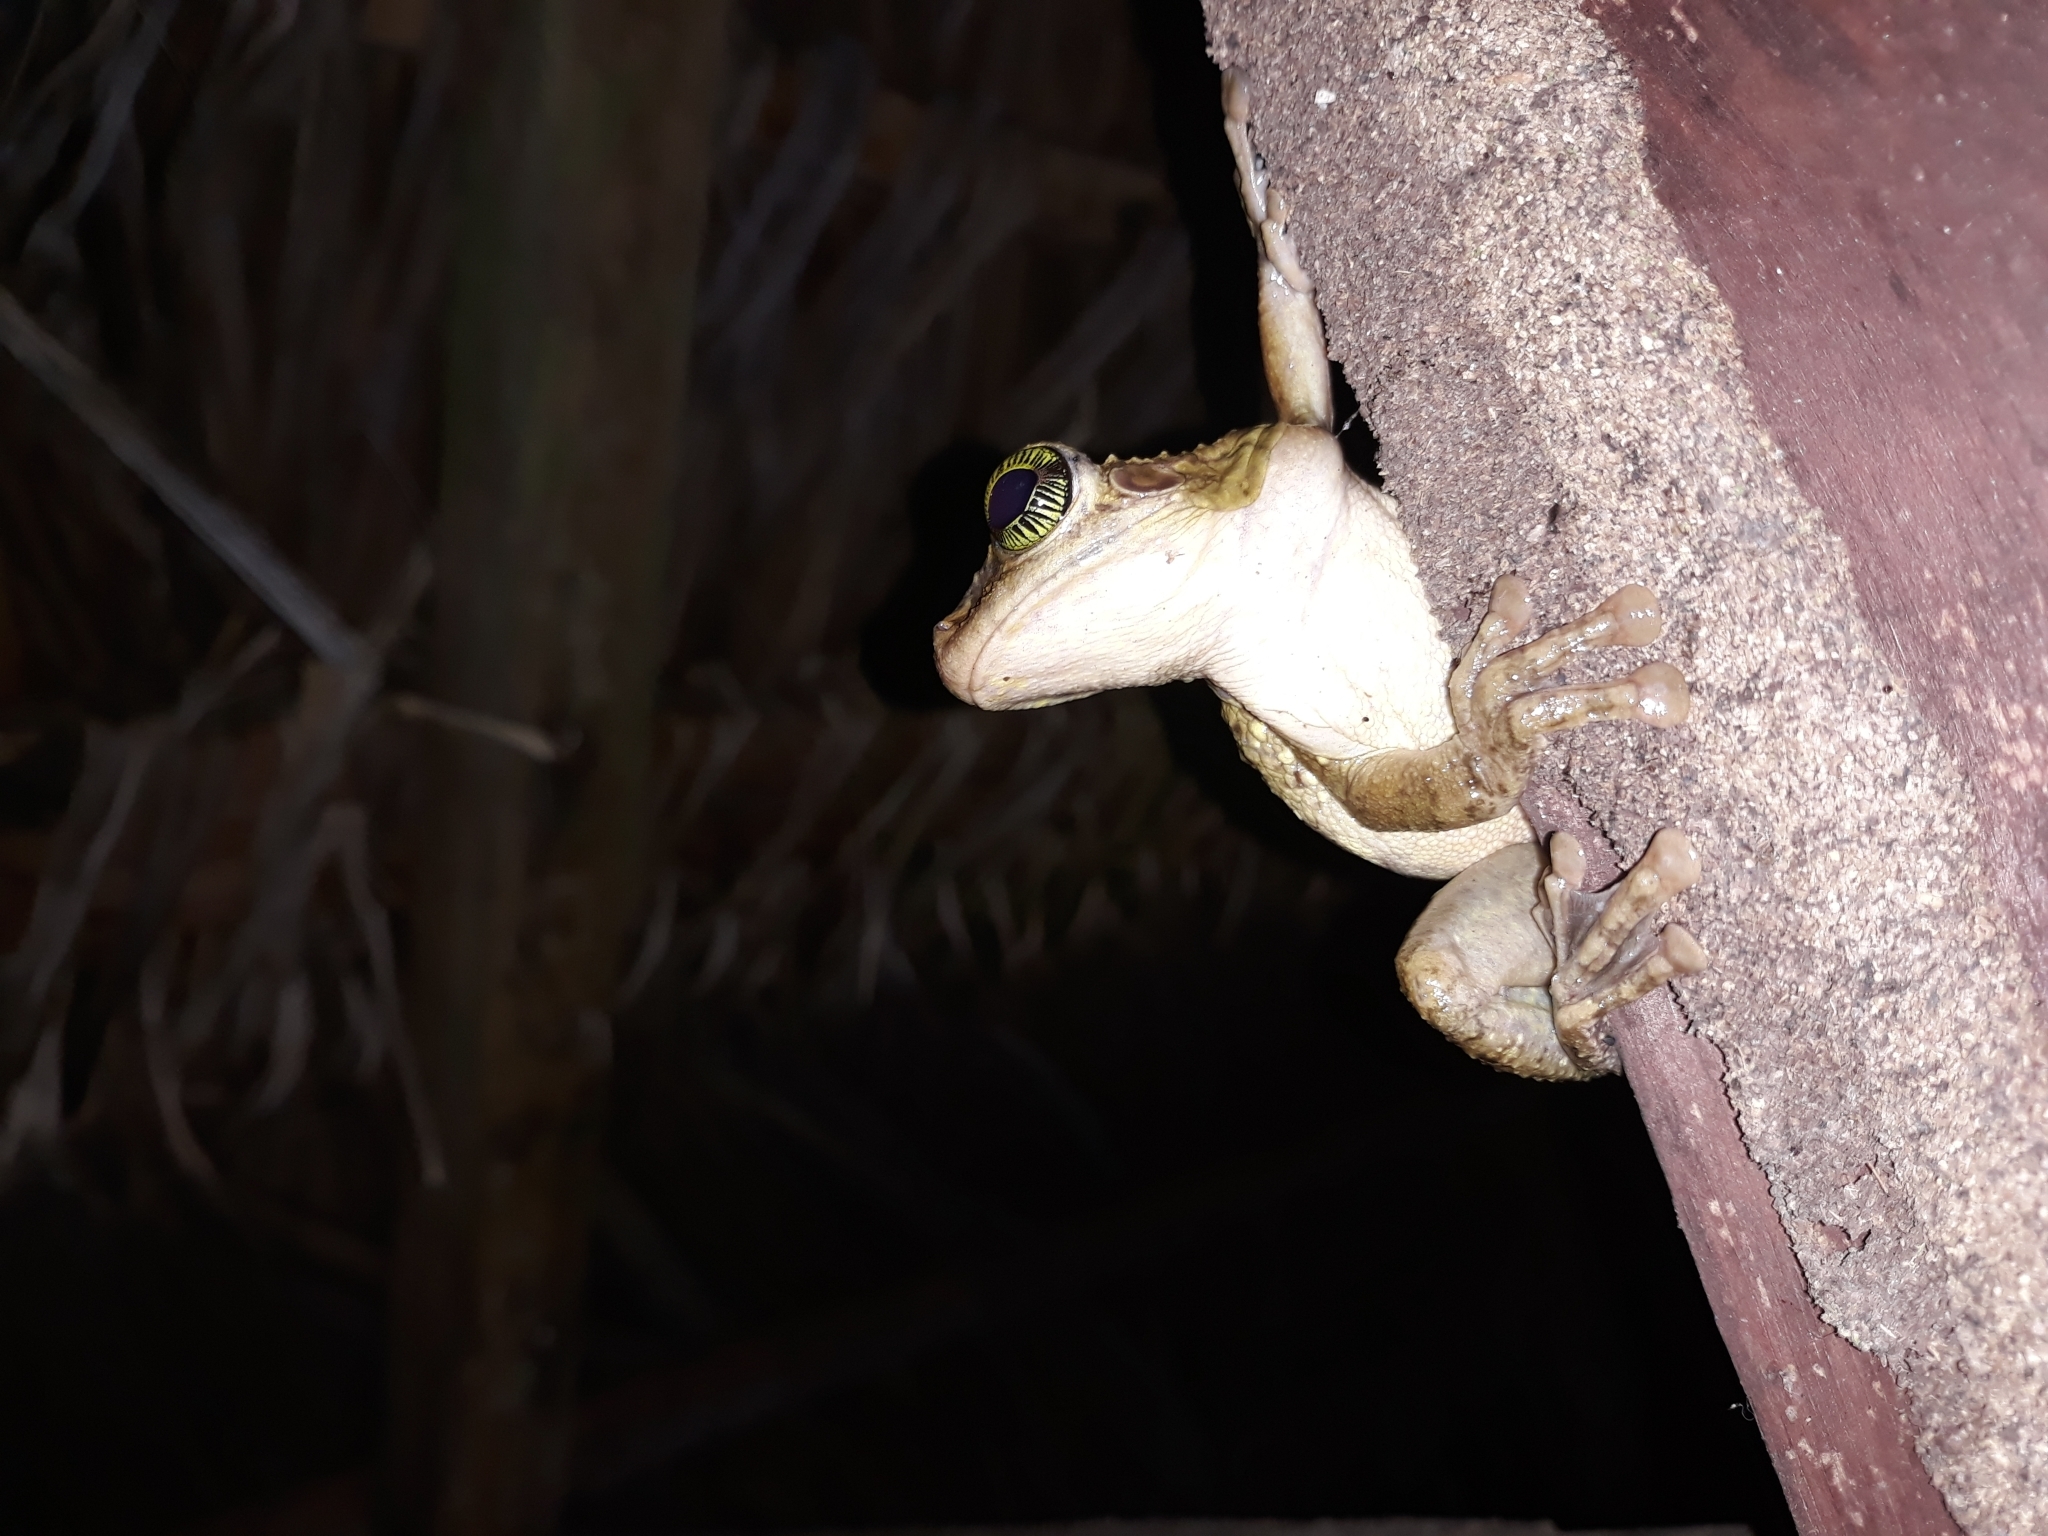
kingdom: Animalia
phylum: Chordata
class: Amphibia
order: Anura
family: Hylidae
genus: Osteocephalus
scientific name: Osteocephalus taurinus
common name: Manaus slender-legged treefrog
